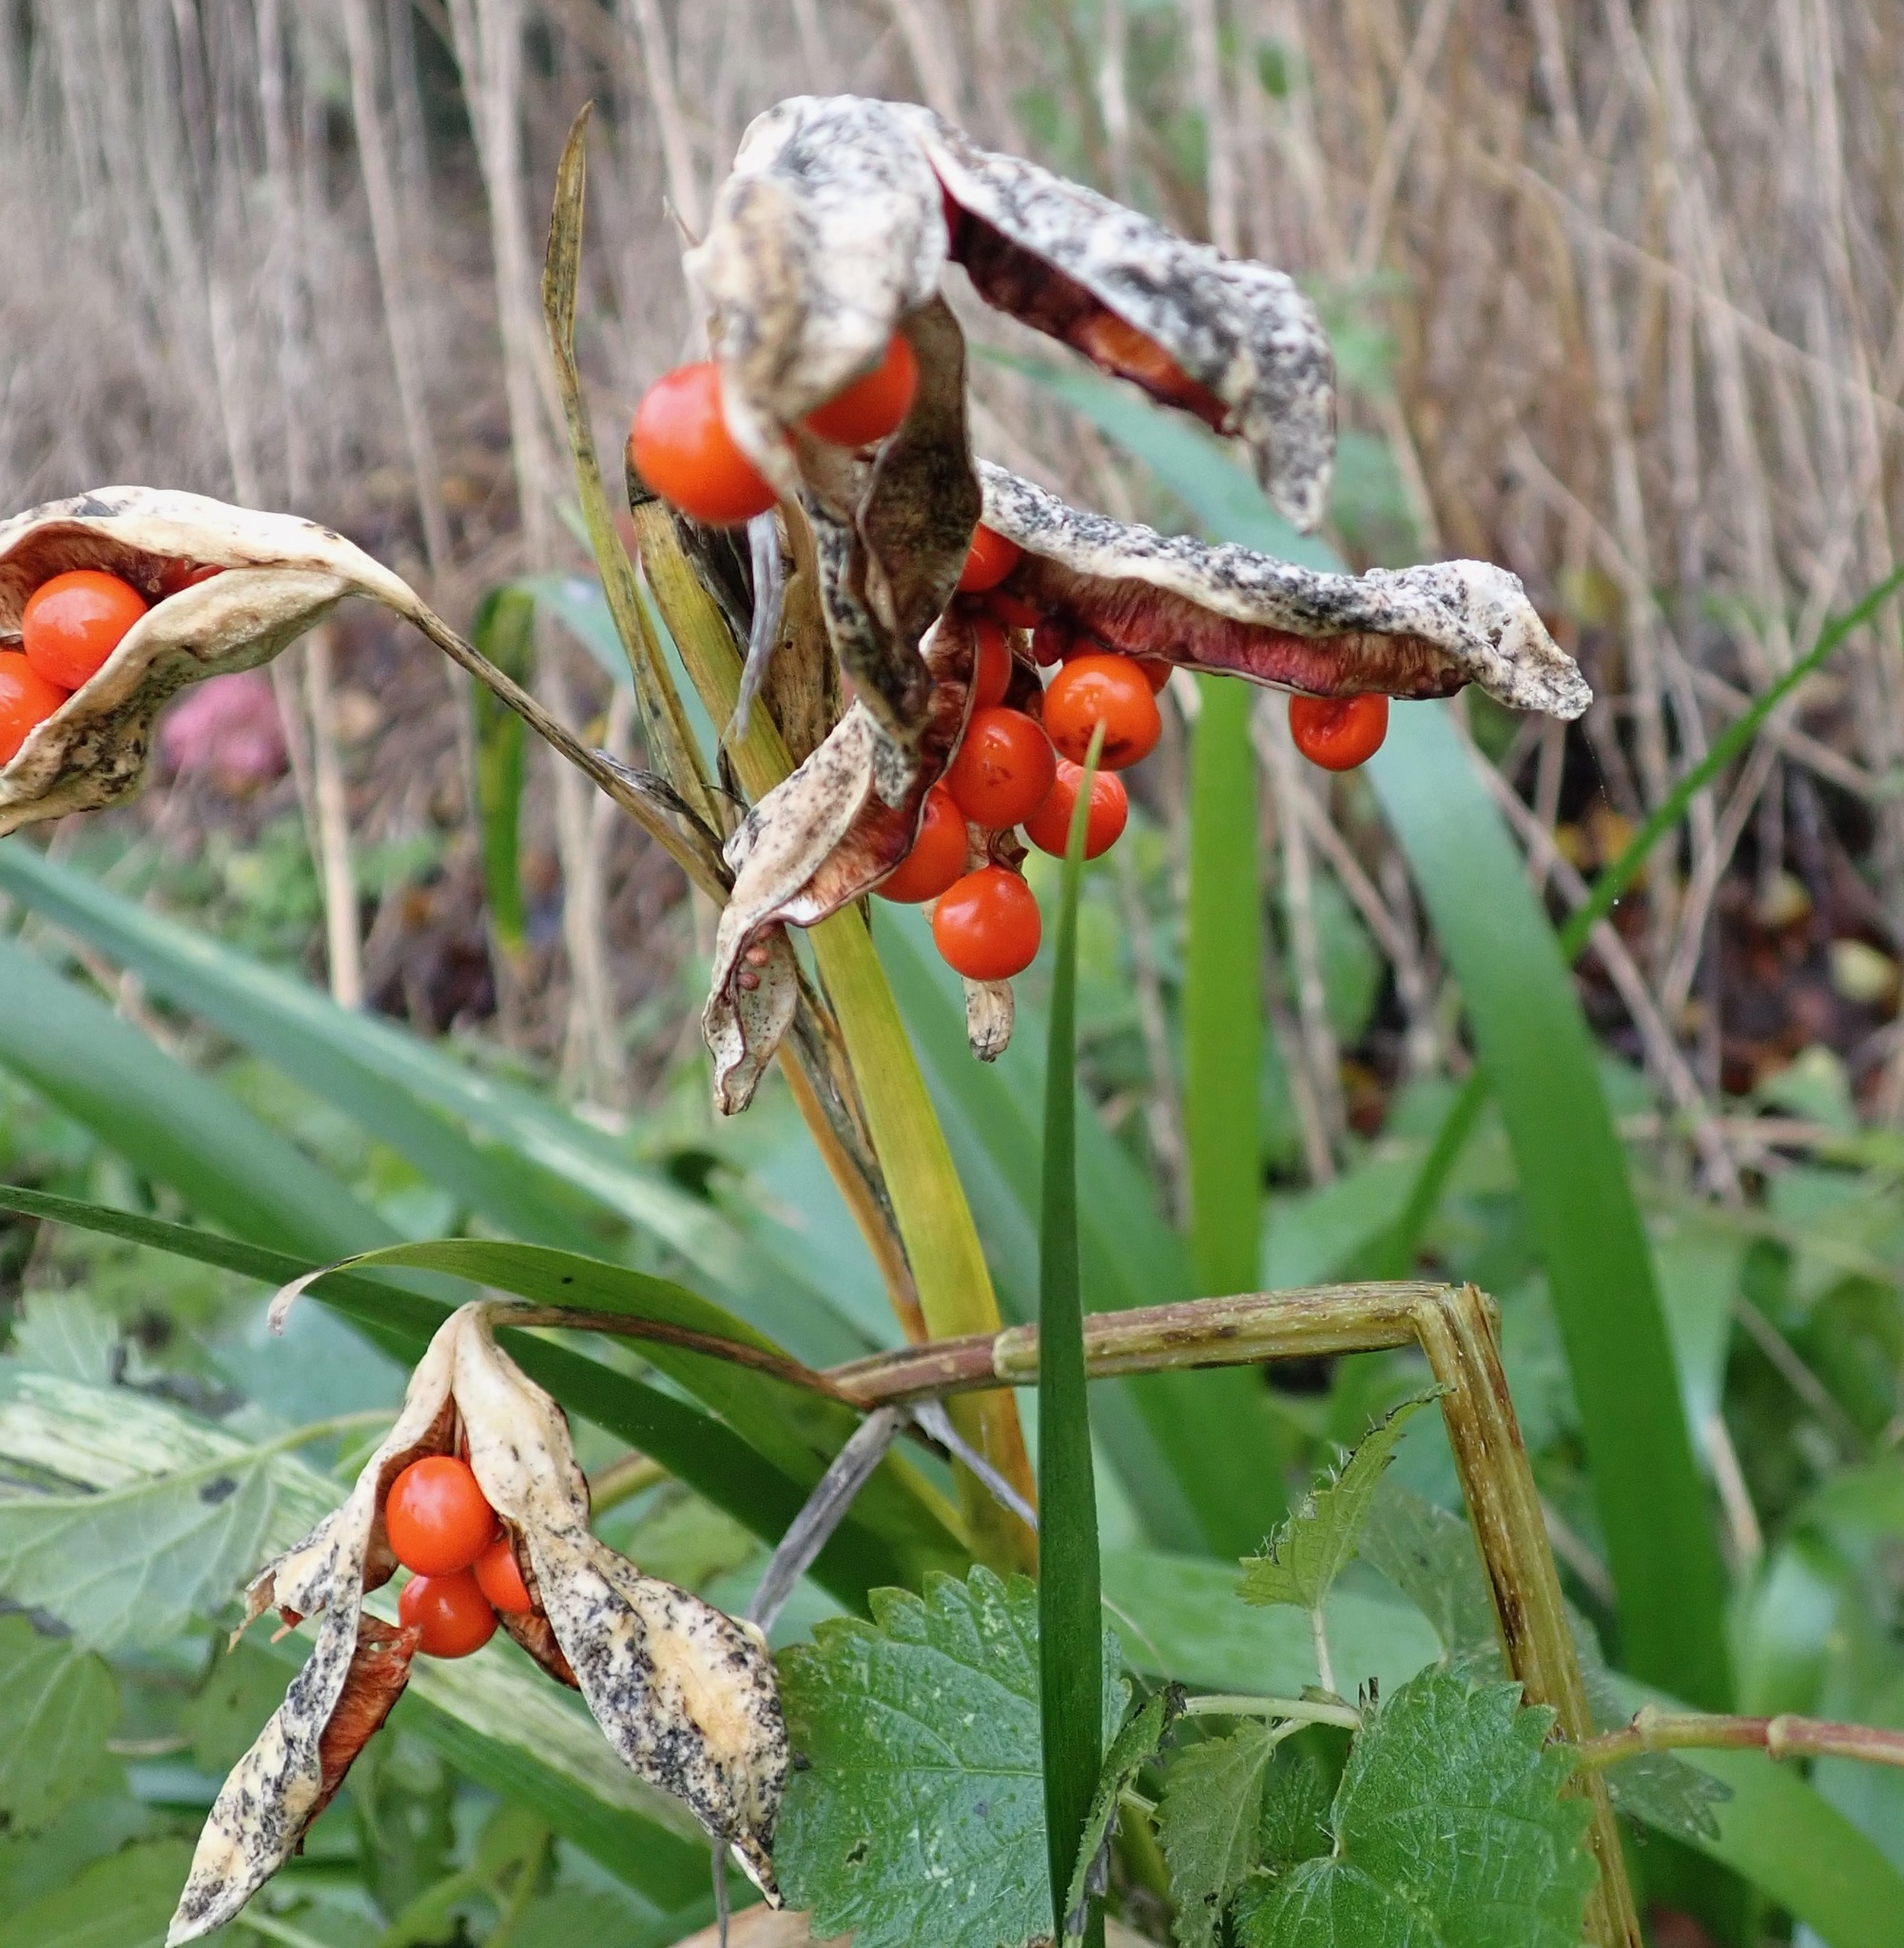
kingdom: Plantae
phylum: Tracheophyta
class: Liliopsida
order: Asparagales
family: Iridaceae
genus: Iris
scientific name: Iris foetidissima
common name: Stinking iris
